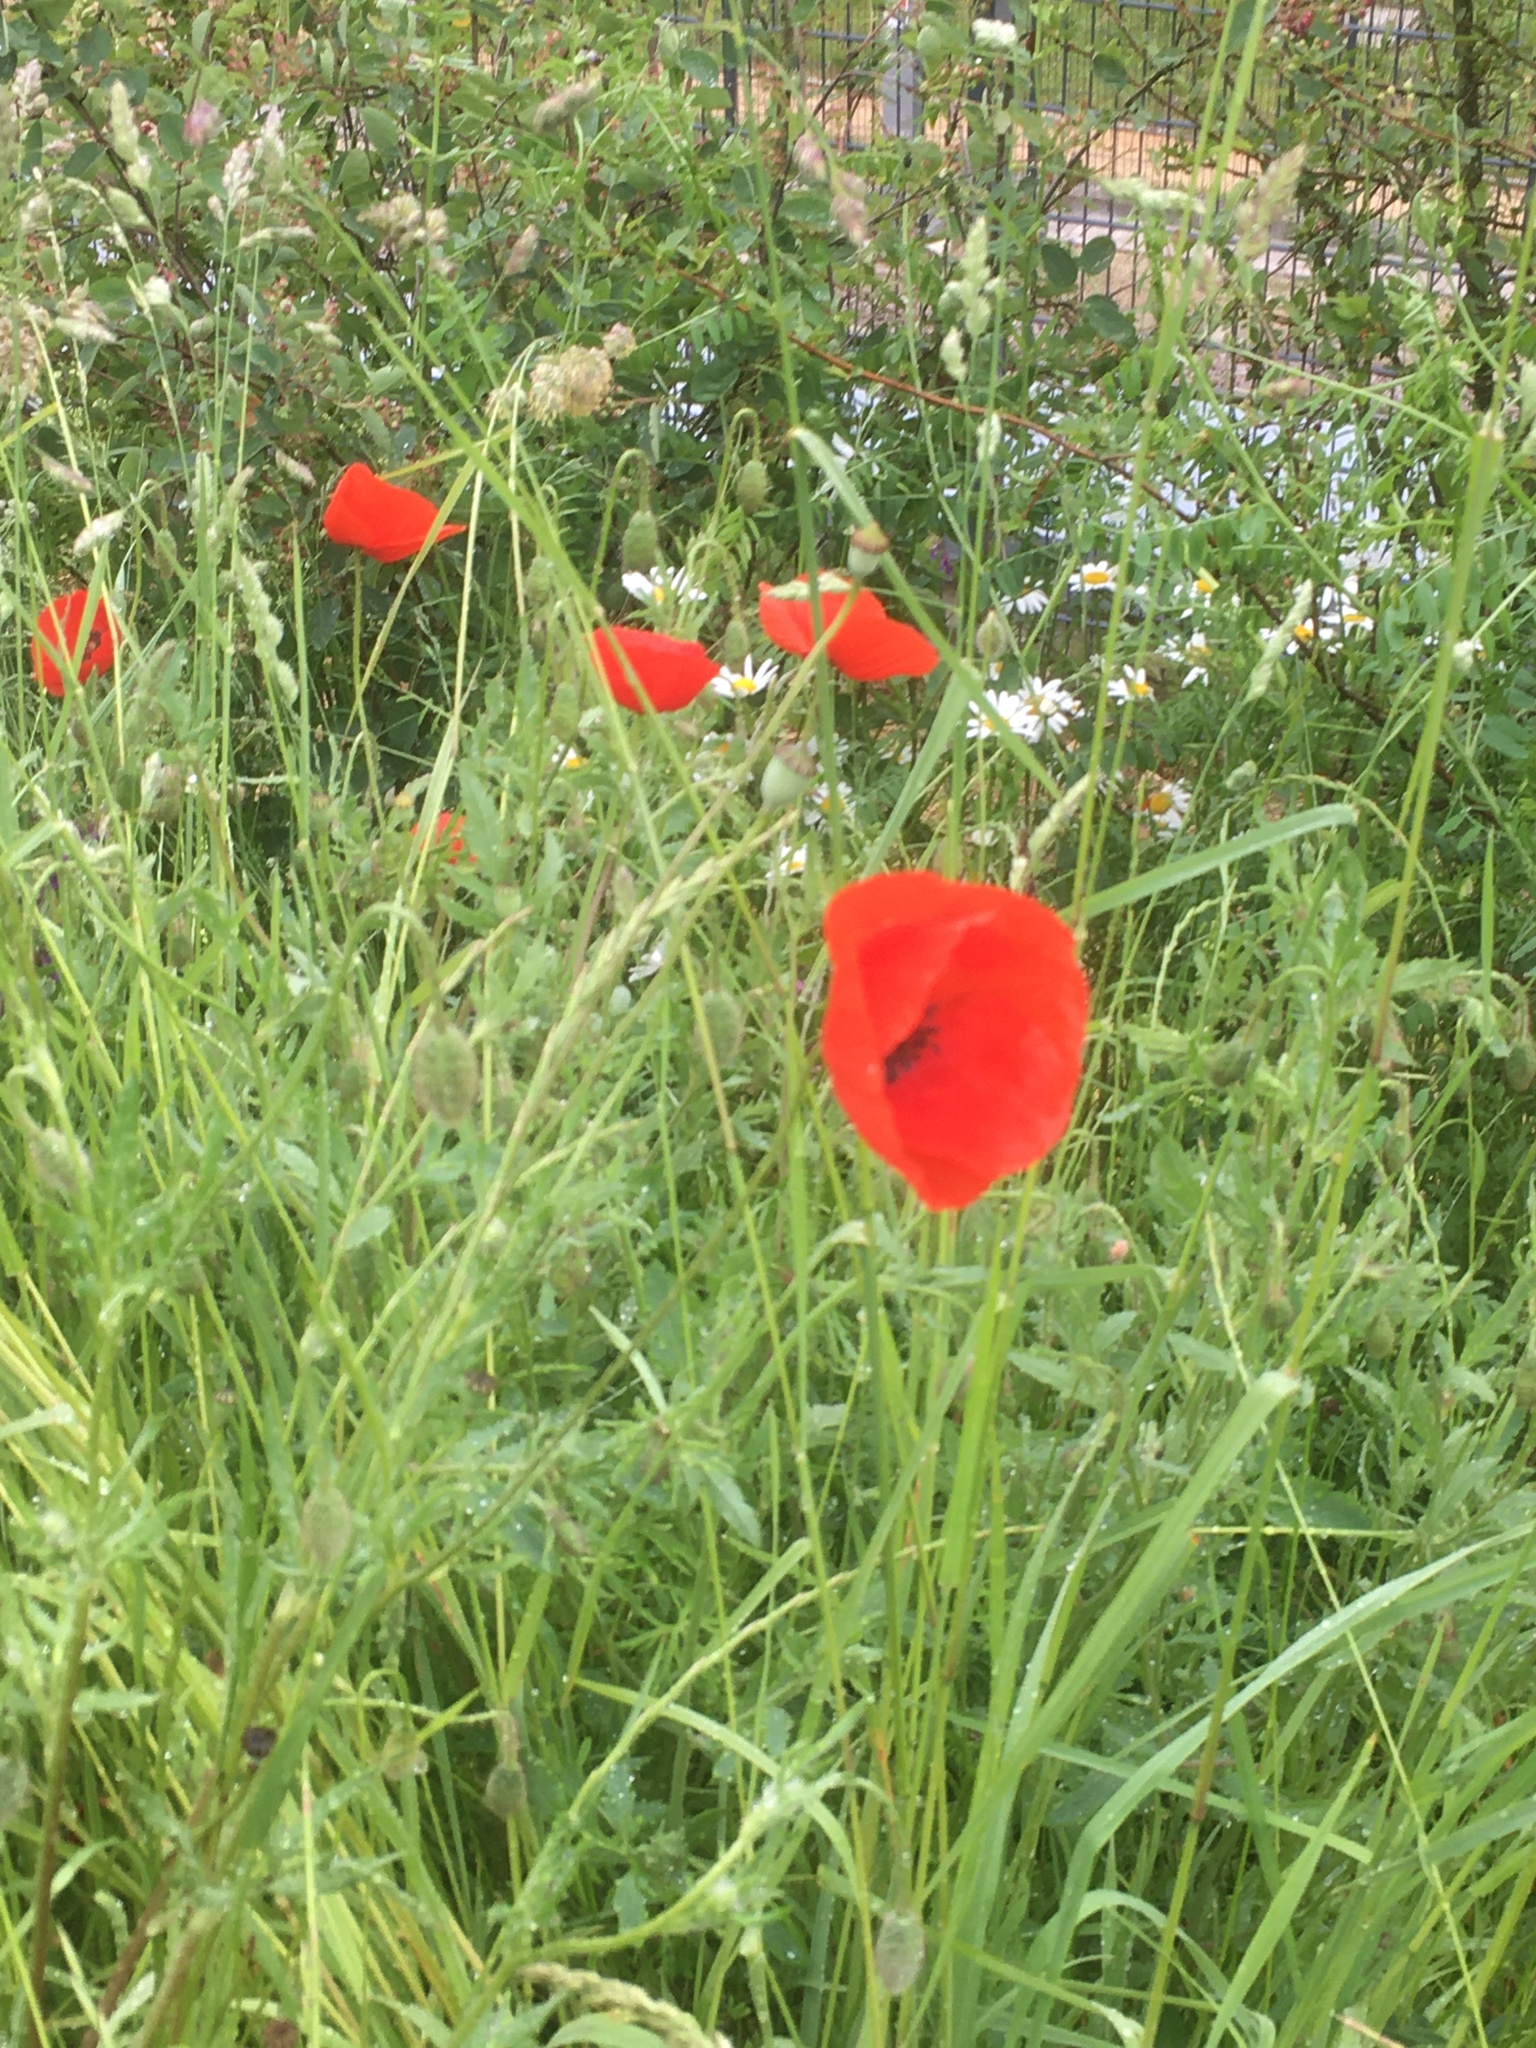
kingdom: Plantae
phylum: Tracheophyta
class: Magnoliopsida
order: Ranunculales
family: Papaveraceae
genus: Papaver
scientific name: Papaver rhoeas
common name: Corn poppy
